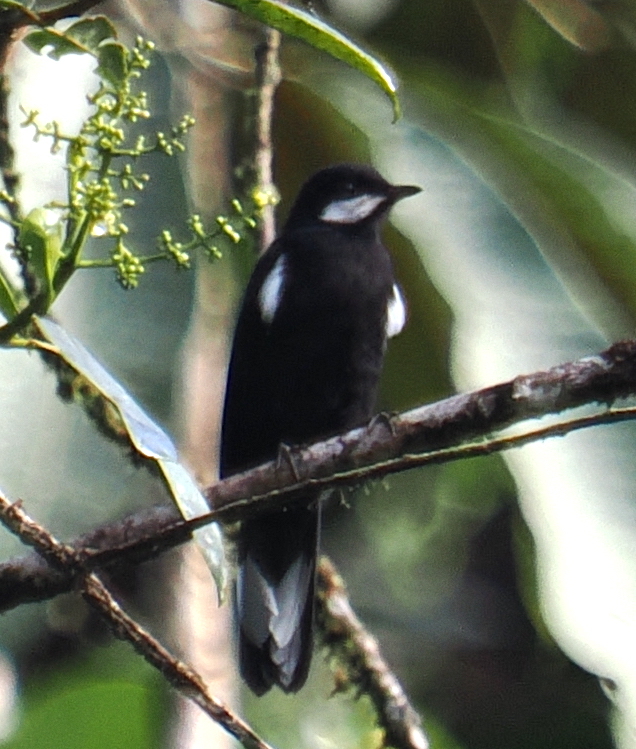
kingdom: Animalia
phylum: Chordata
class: Aves
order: Passeriformes
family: Turdidae
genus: Entomodestes
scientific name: Entomodestes coracinus
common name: Black solitaire
